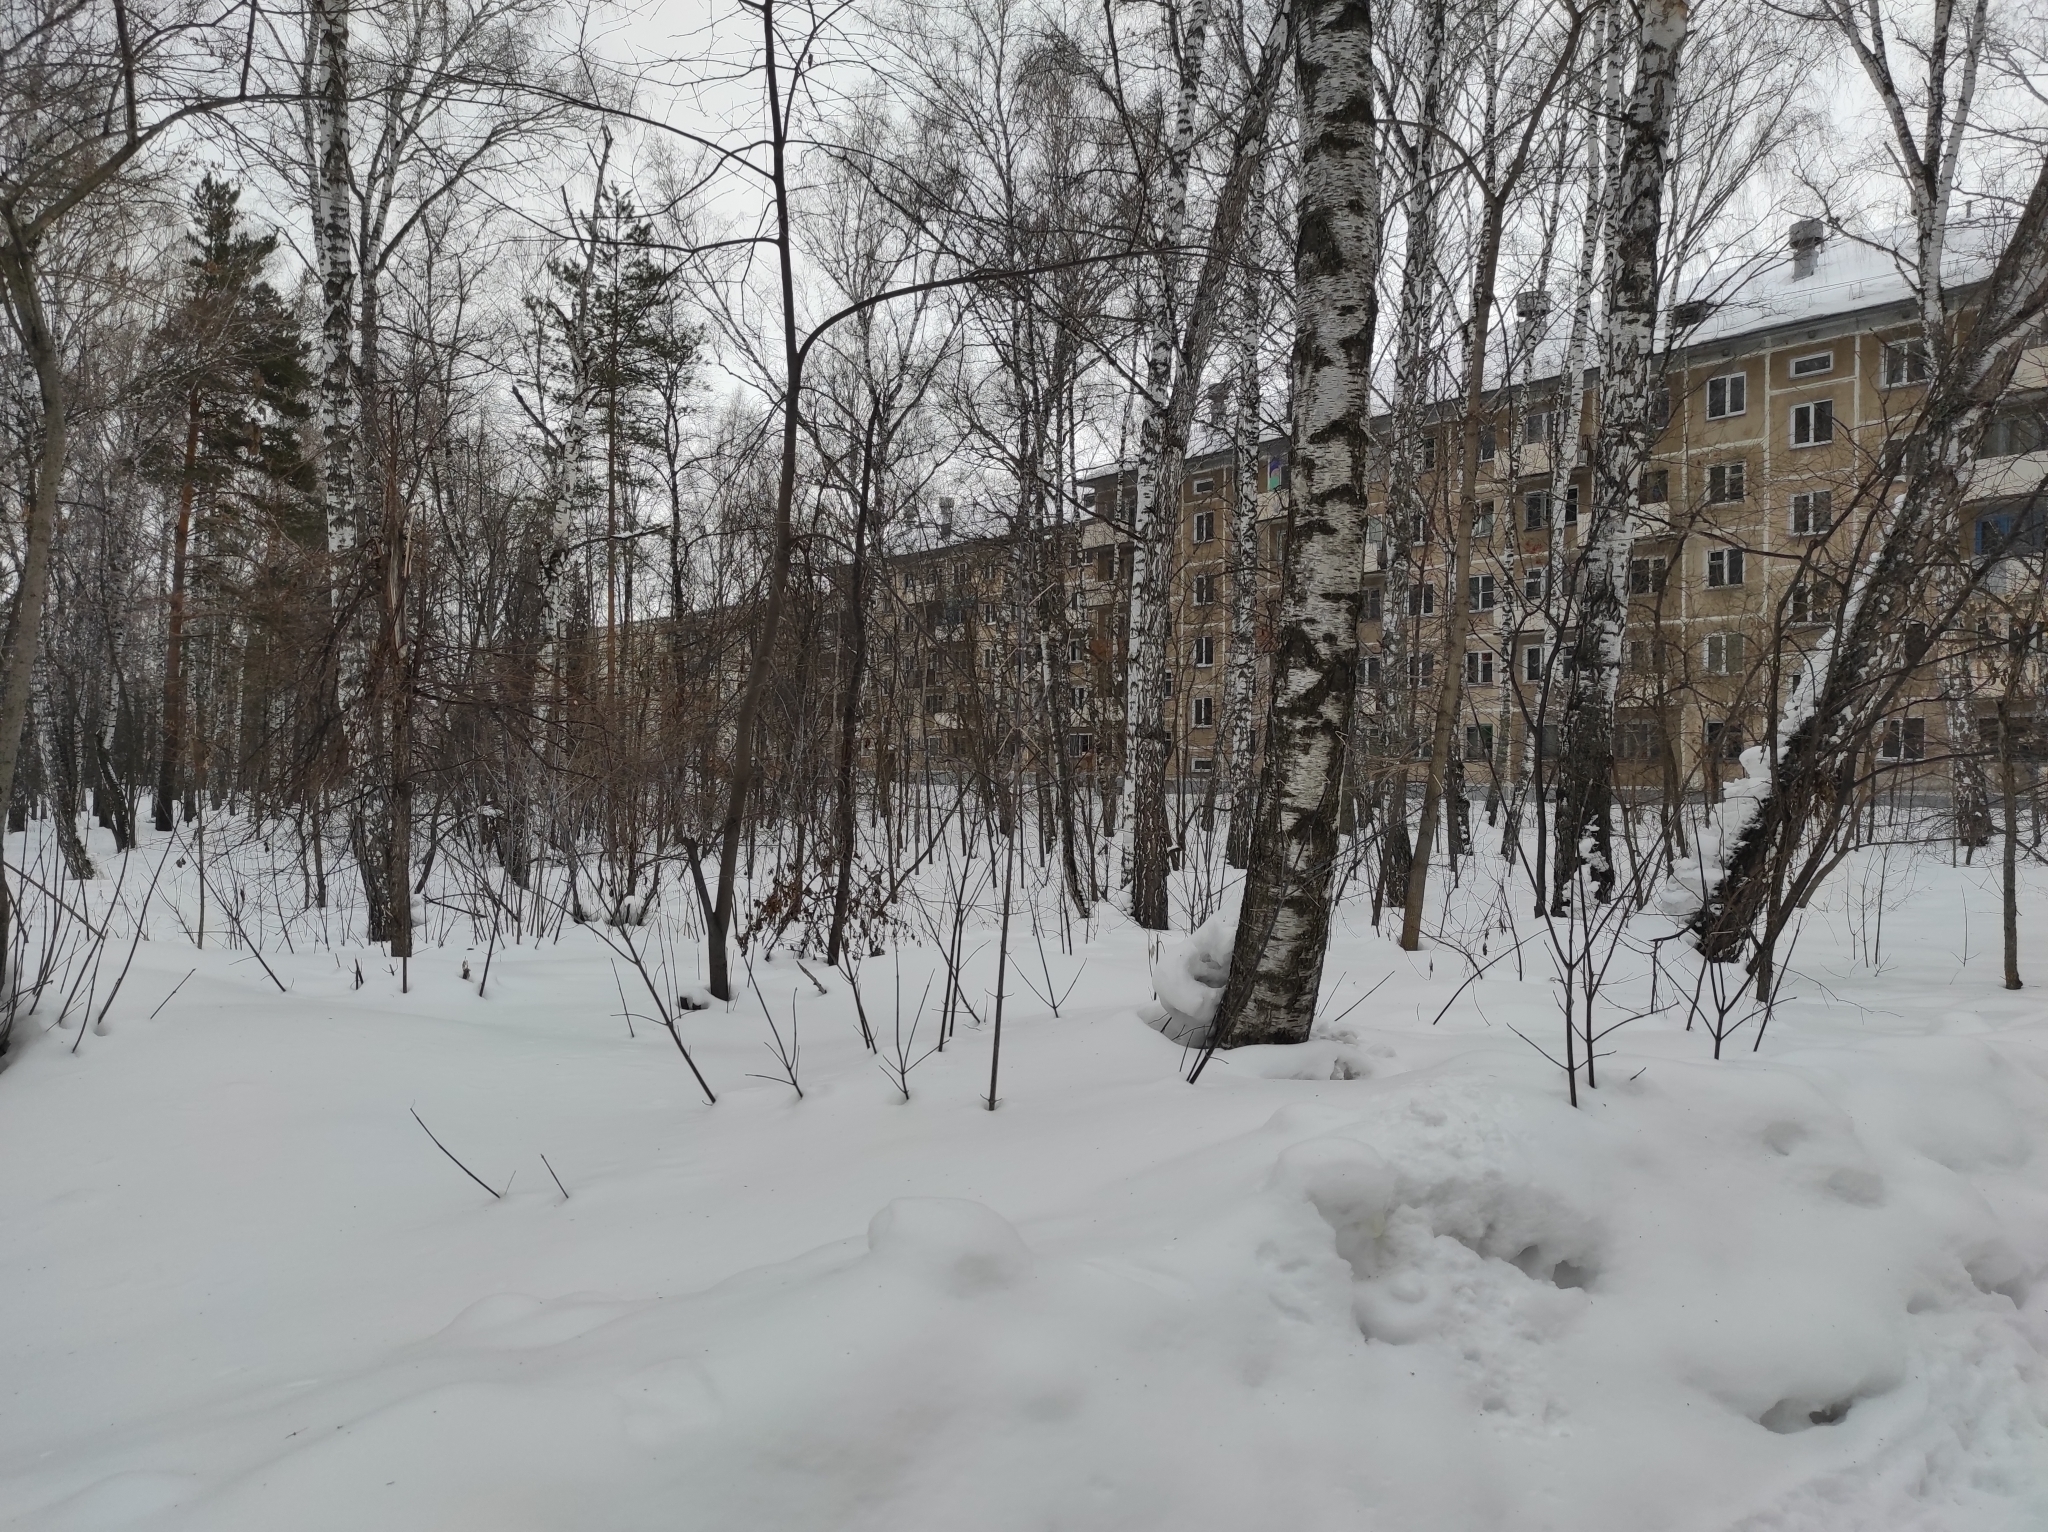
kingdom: Plantae
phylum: Tracheophyta
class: Magnoliopsida
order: Fagales
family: Betulaceae
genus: Betula
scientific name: Betula pendula
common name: Silver birch
